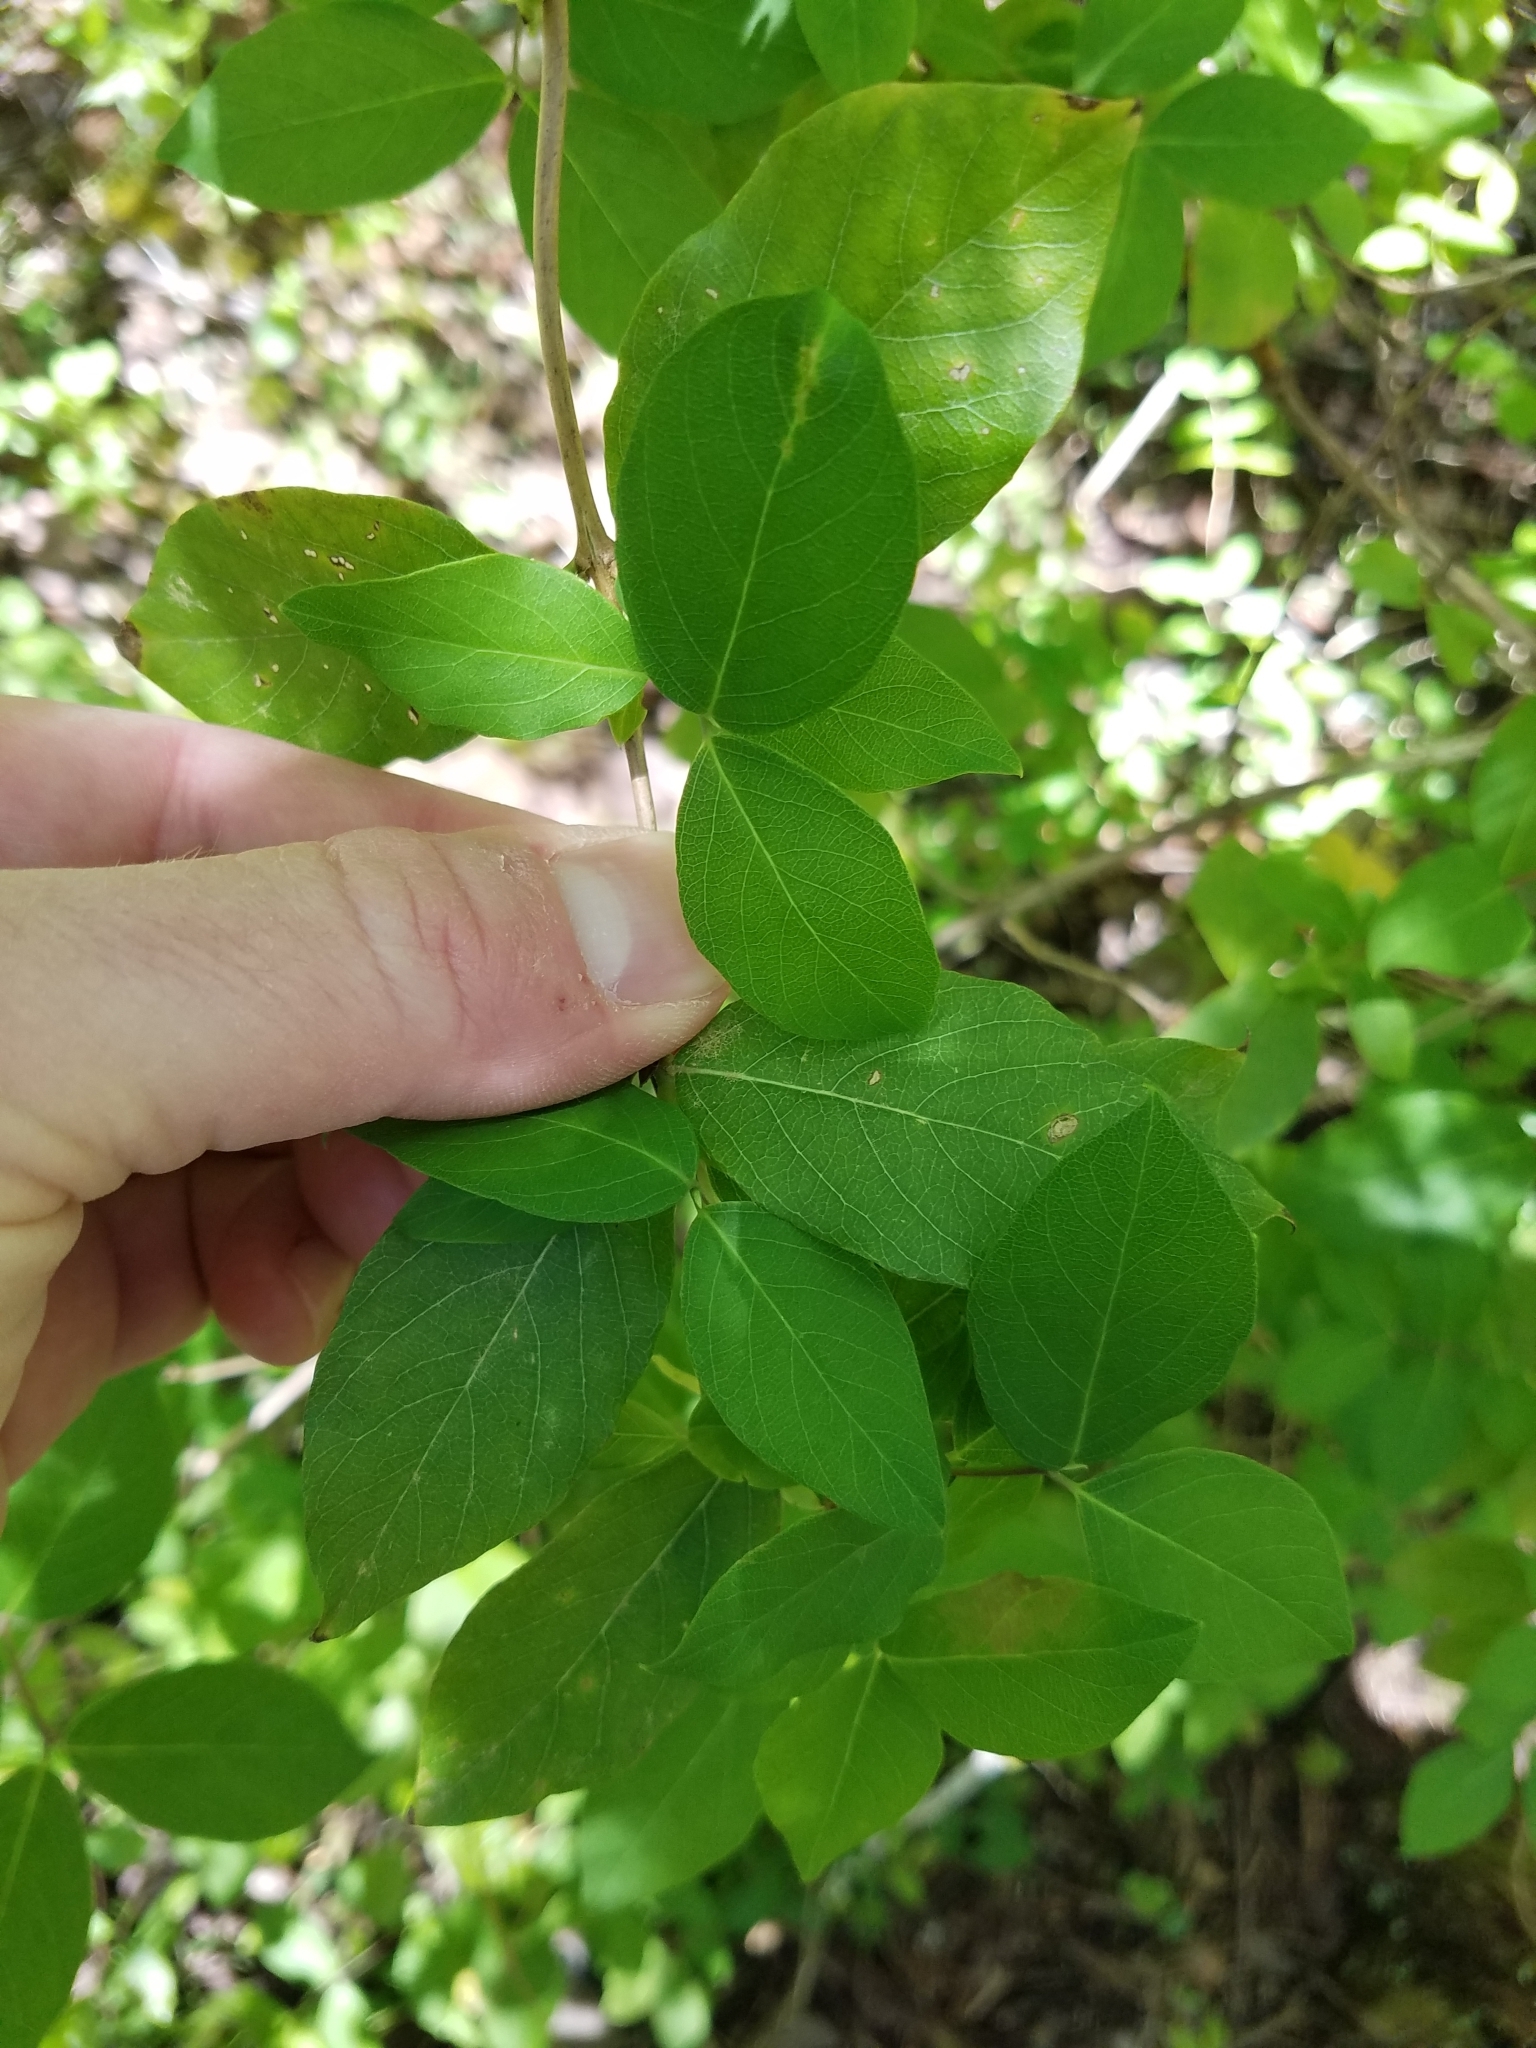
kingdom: Plantae
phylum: Tracheophyta
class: Magnoliopsida
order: Dipsacales
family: Caprifoliaceae
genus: Lonicera
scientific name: Lonicera fragrantissima
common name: Fragrant honeysuckle
